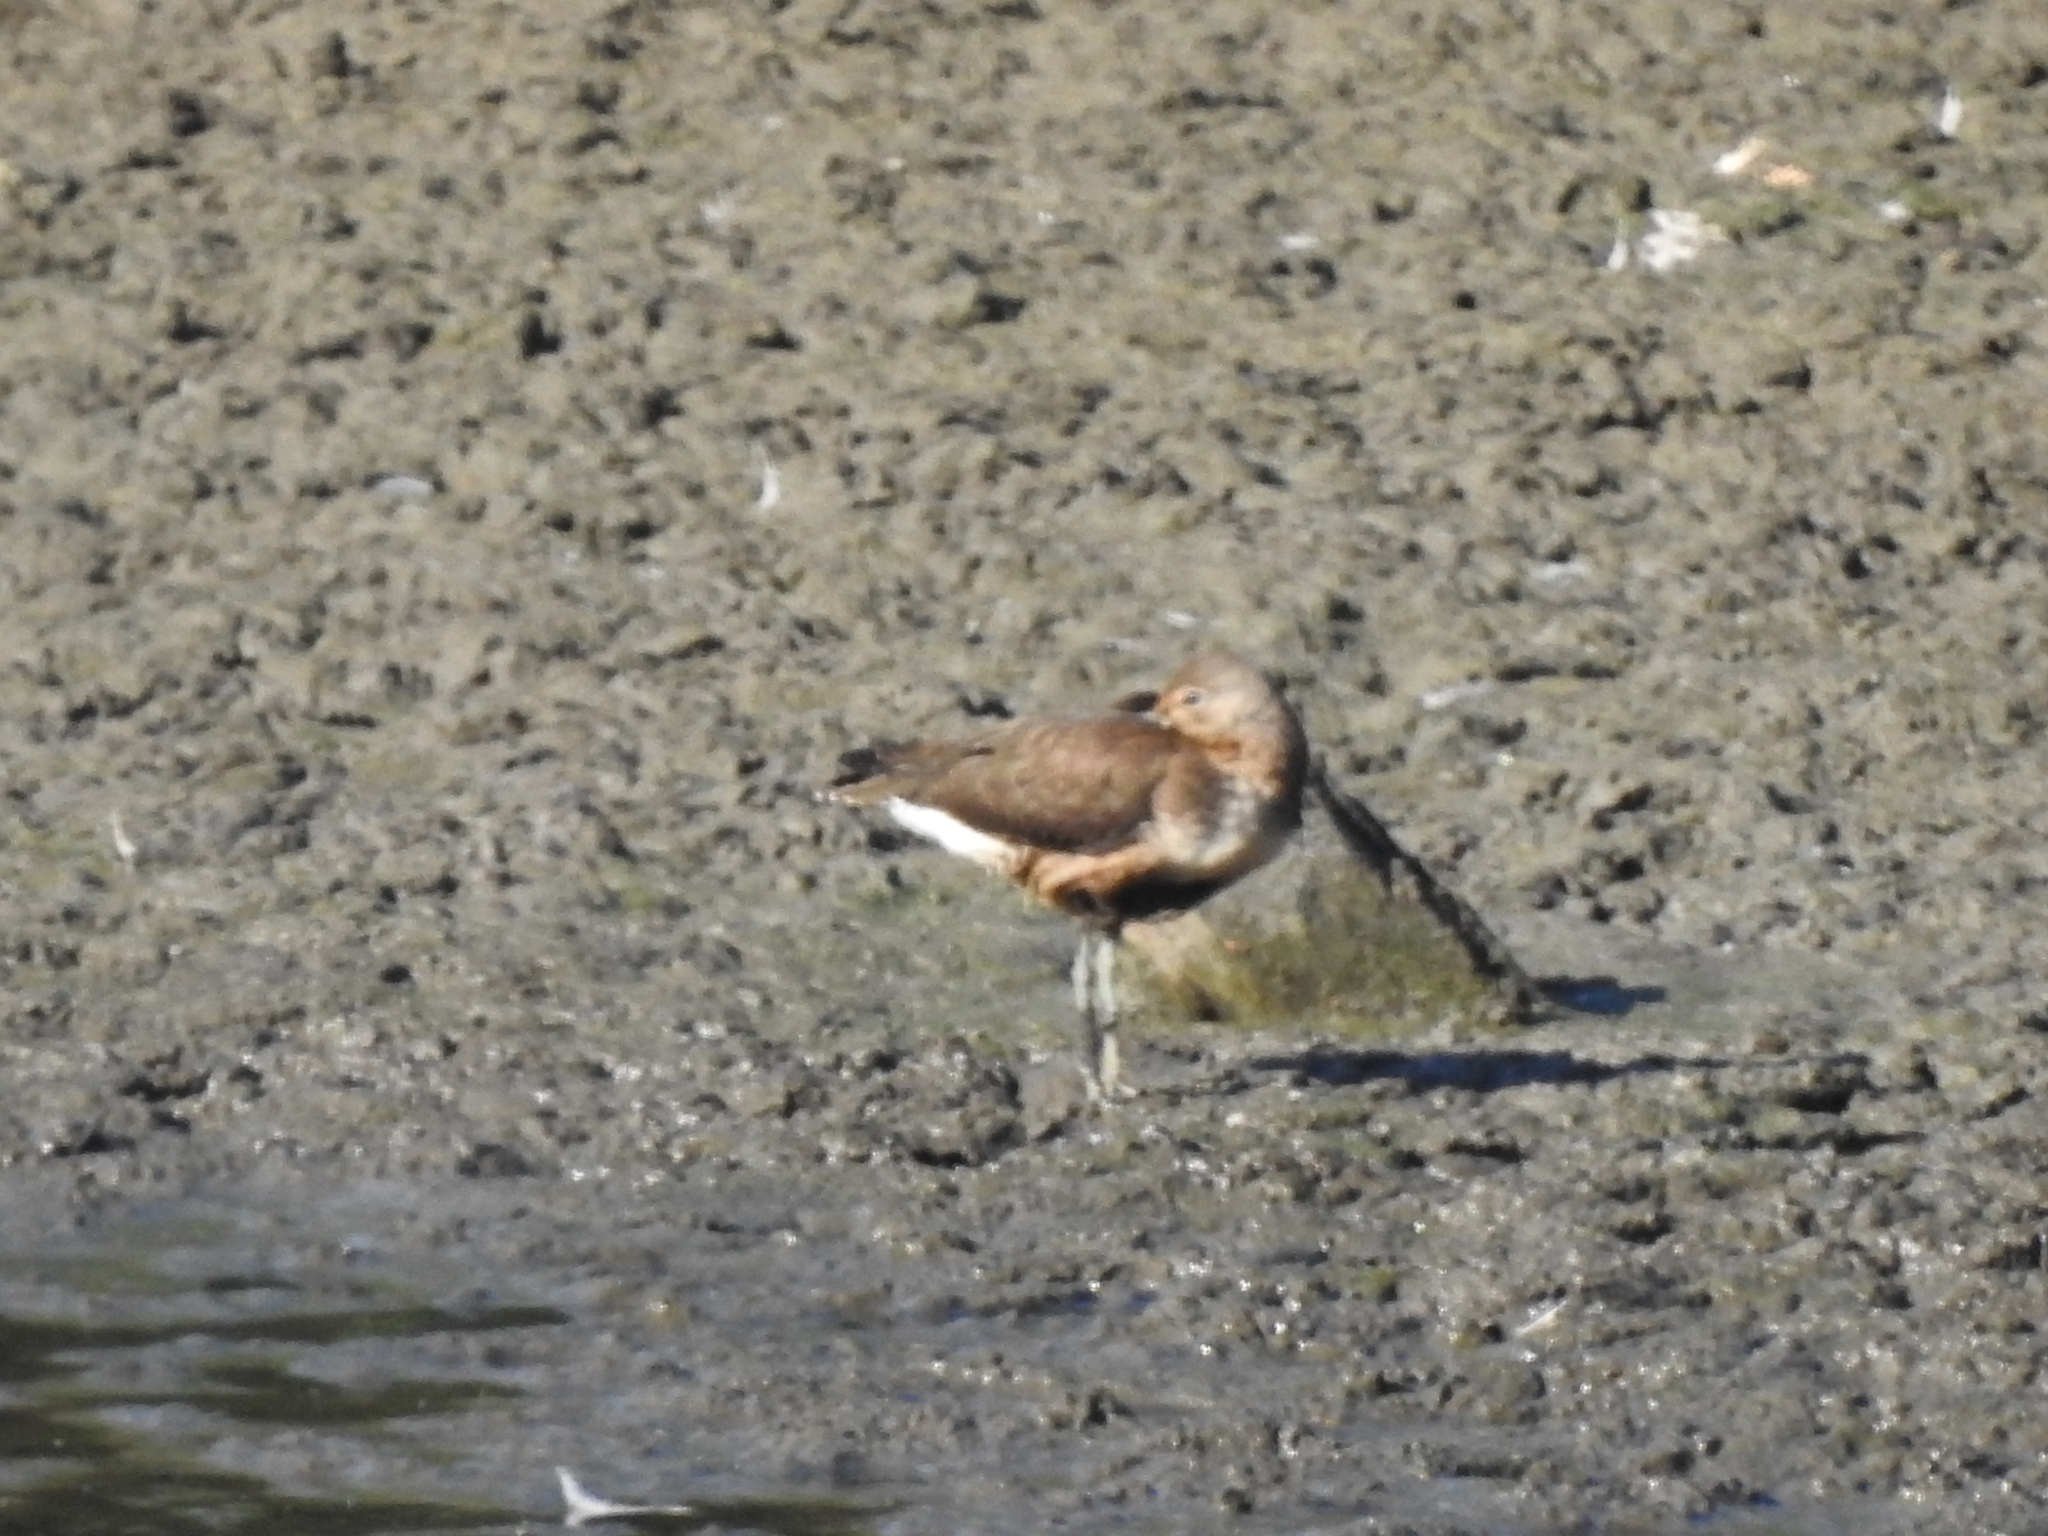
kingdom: Animalia
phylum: Chordata
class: Aves
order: Charadriiformes
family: Scolopacidae
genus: Tringa
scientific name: Tringa ochropus
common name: Green sandpiper
